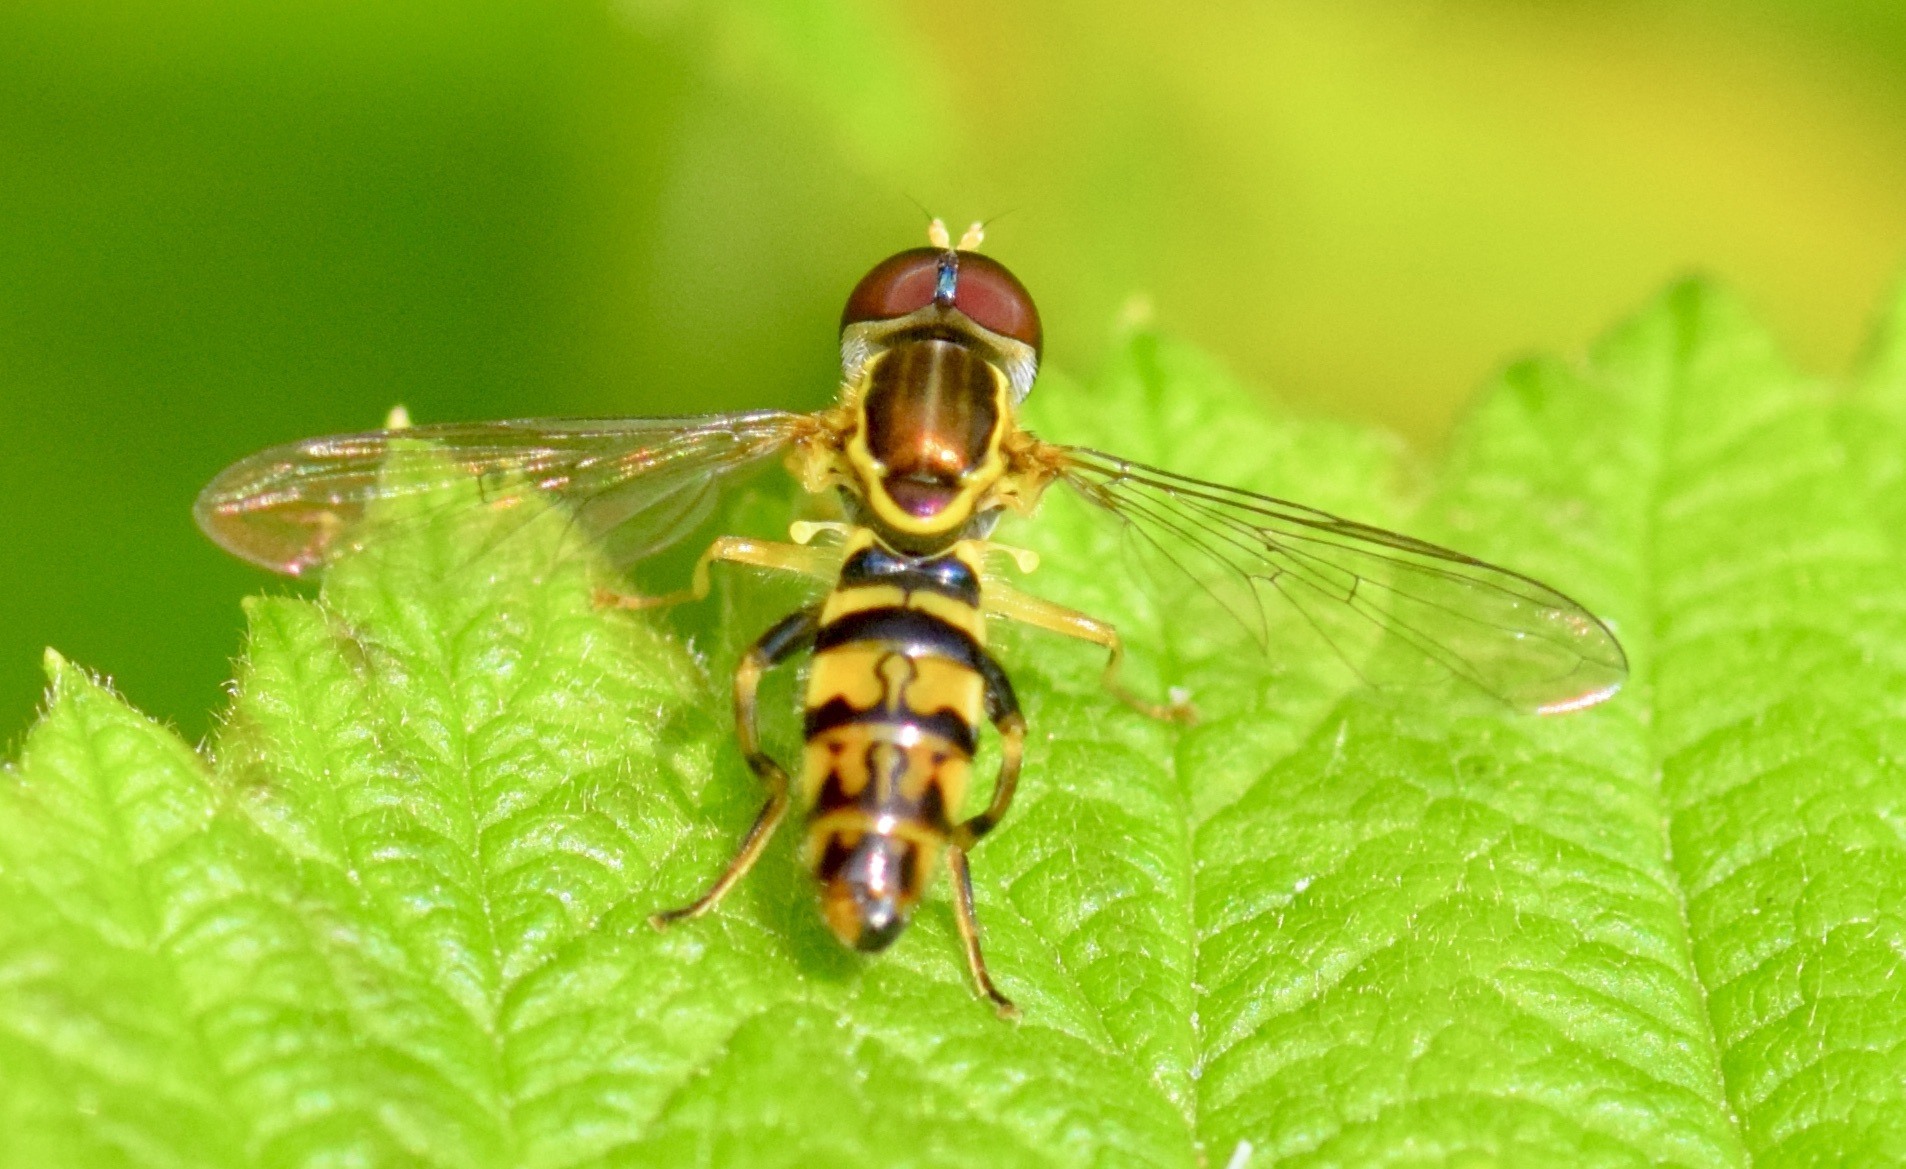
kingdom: Animalia
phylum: Arthropoda
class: Insecta
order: Diptera
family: Syrphidae
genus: Toxomerus
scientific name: Toxomerus geminatus
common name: Eastern calligrapher
